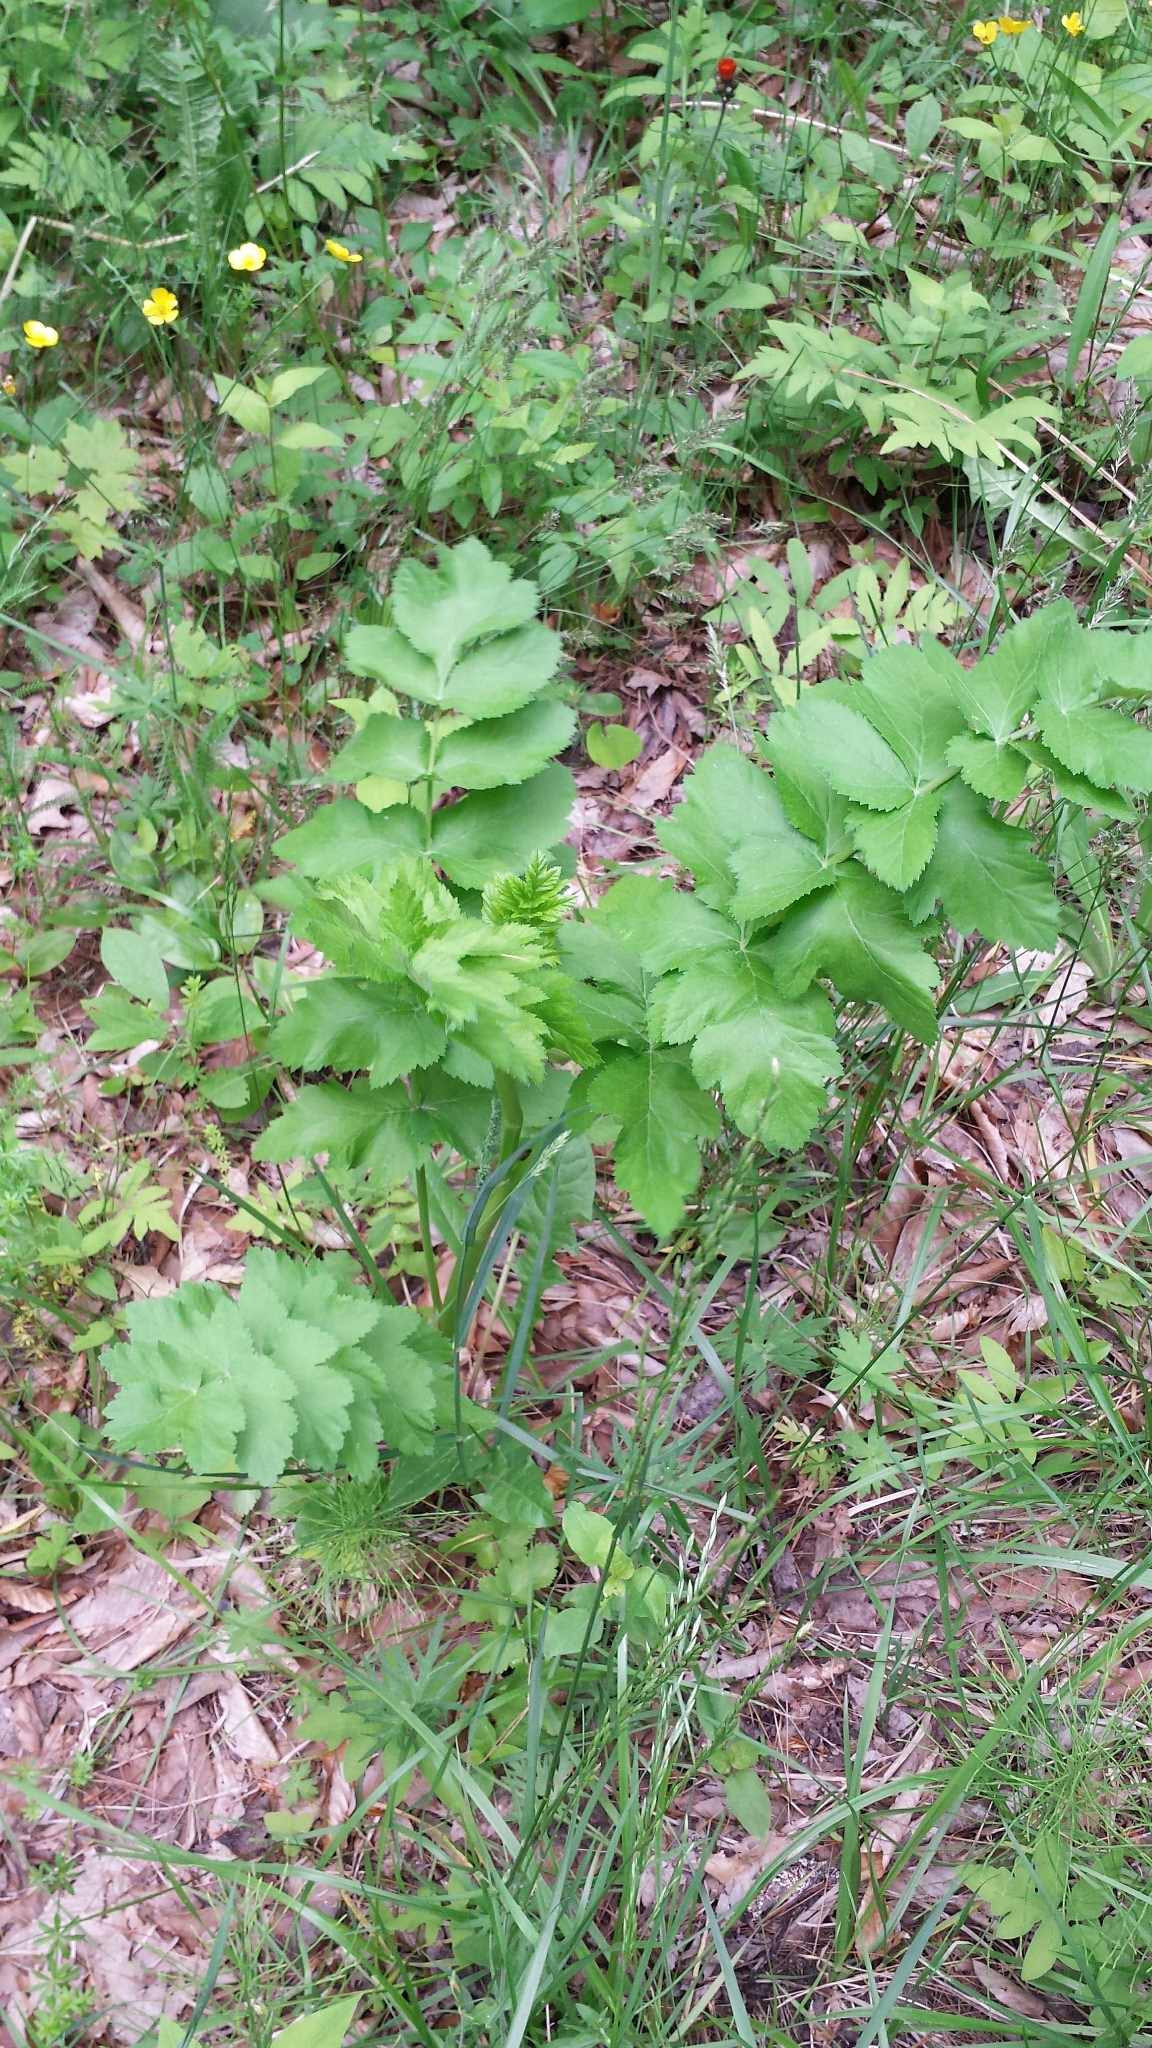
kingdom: Plantae
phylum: Tracheophyta
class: Magnoliopsida
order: Apiales
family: Apiaceae
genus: Pastinaca
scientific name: Pastinaca sativa
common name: Wild parsnip
